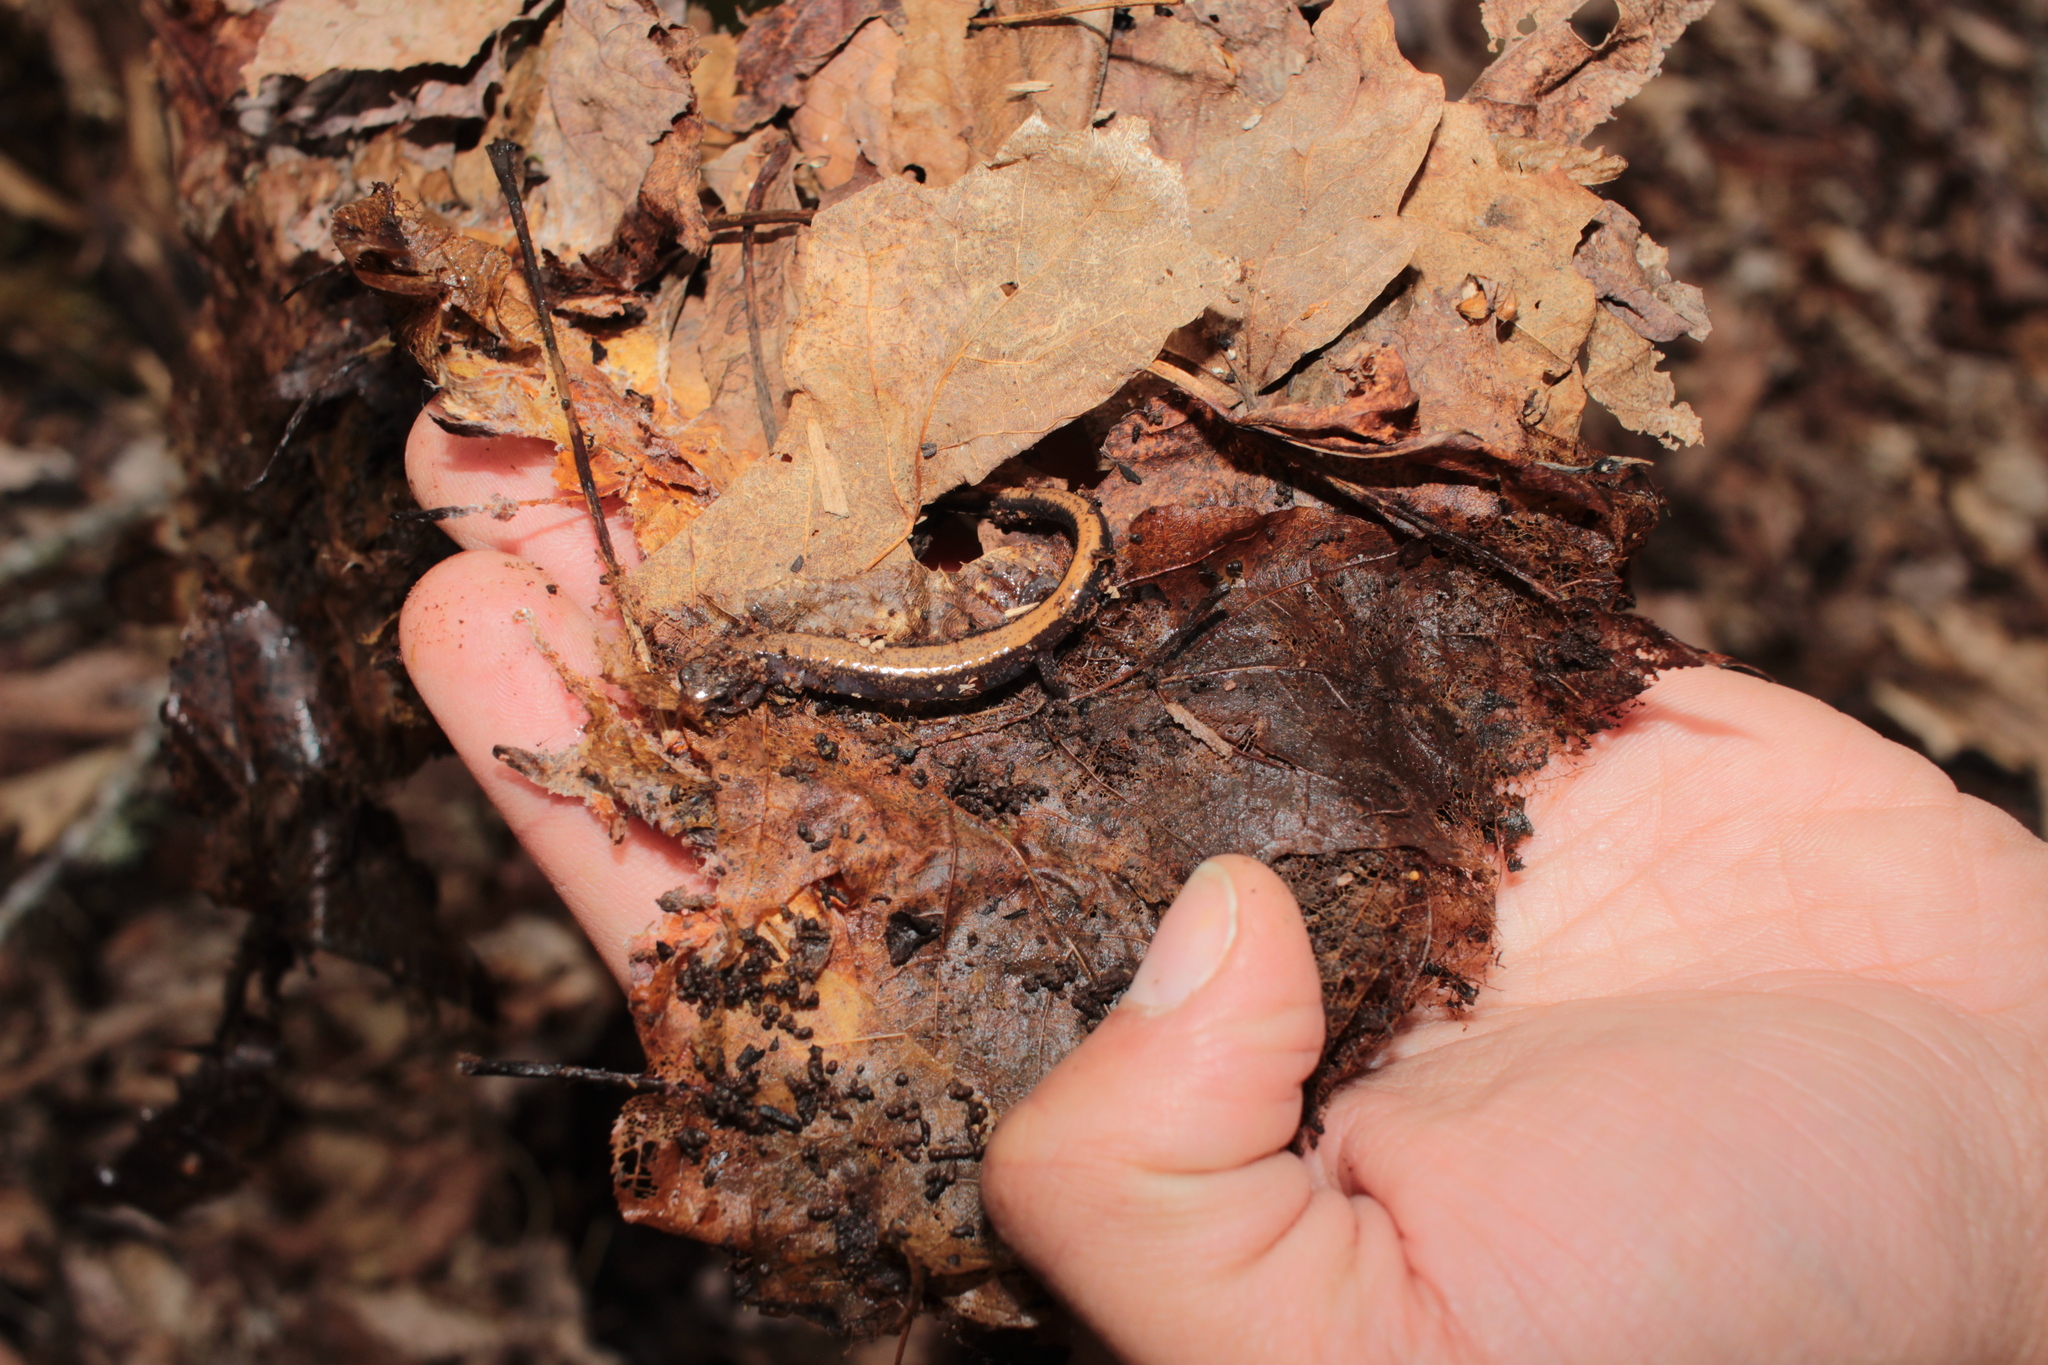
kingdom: Animalia
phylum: Chordata
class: Amphibia
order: Caudata
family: Plethodontidae
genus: Plethodon
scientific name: Plethodon cinereus
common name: Redback salamander
